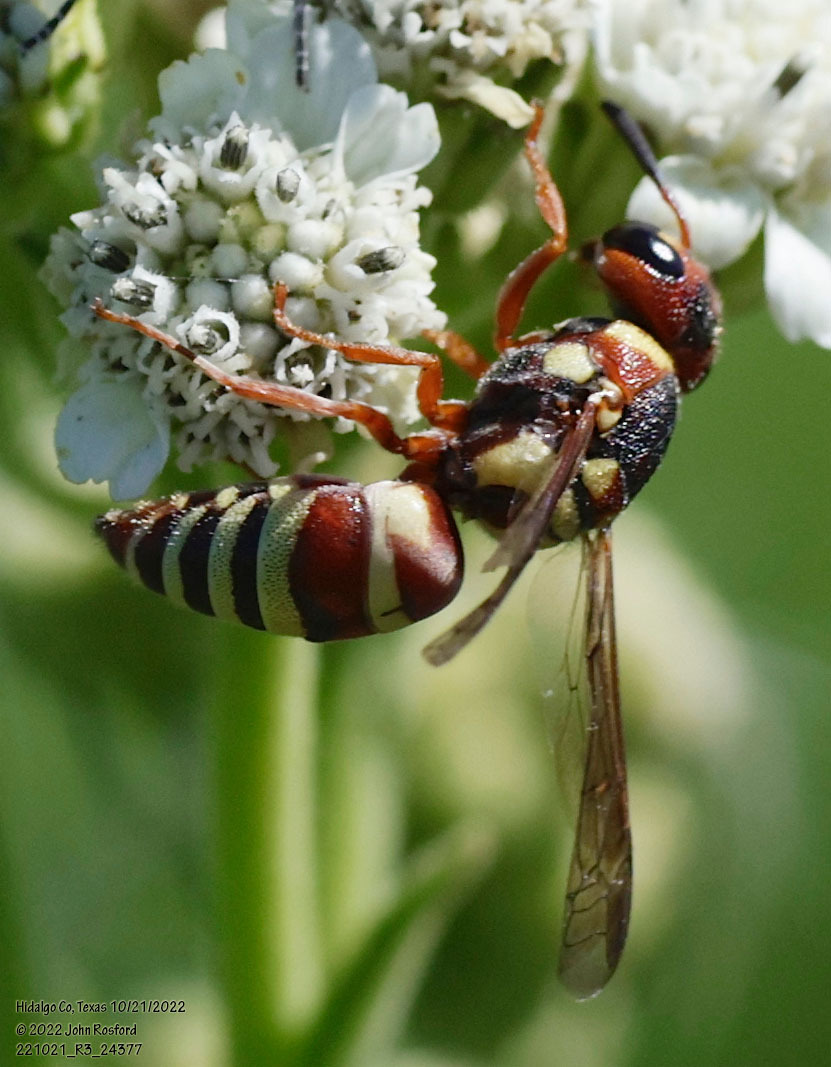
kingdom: Animalia
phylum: Arthropoda
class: Insecta
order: Hymenoptera
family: Eumenidae
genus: Euodynerus
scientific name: Euodynerus annulatus
